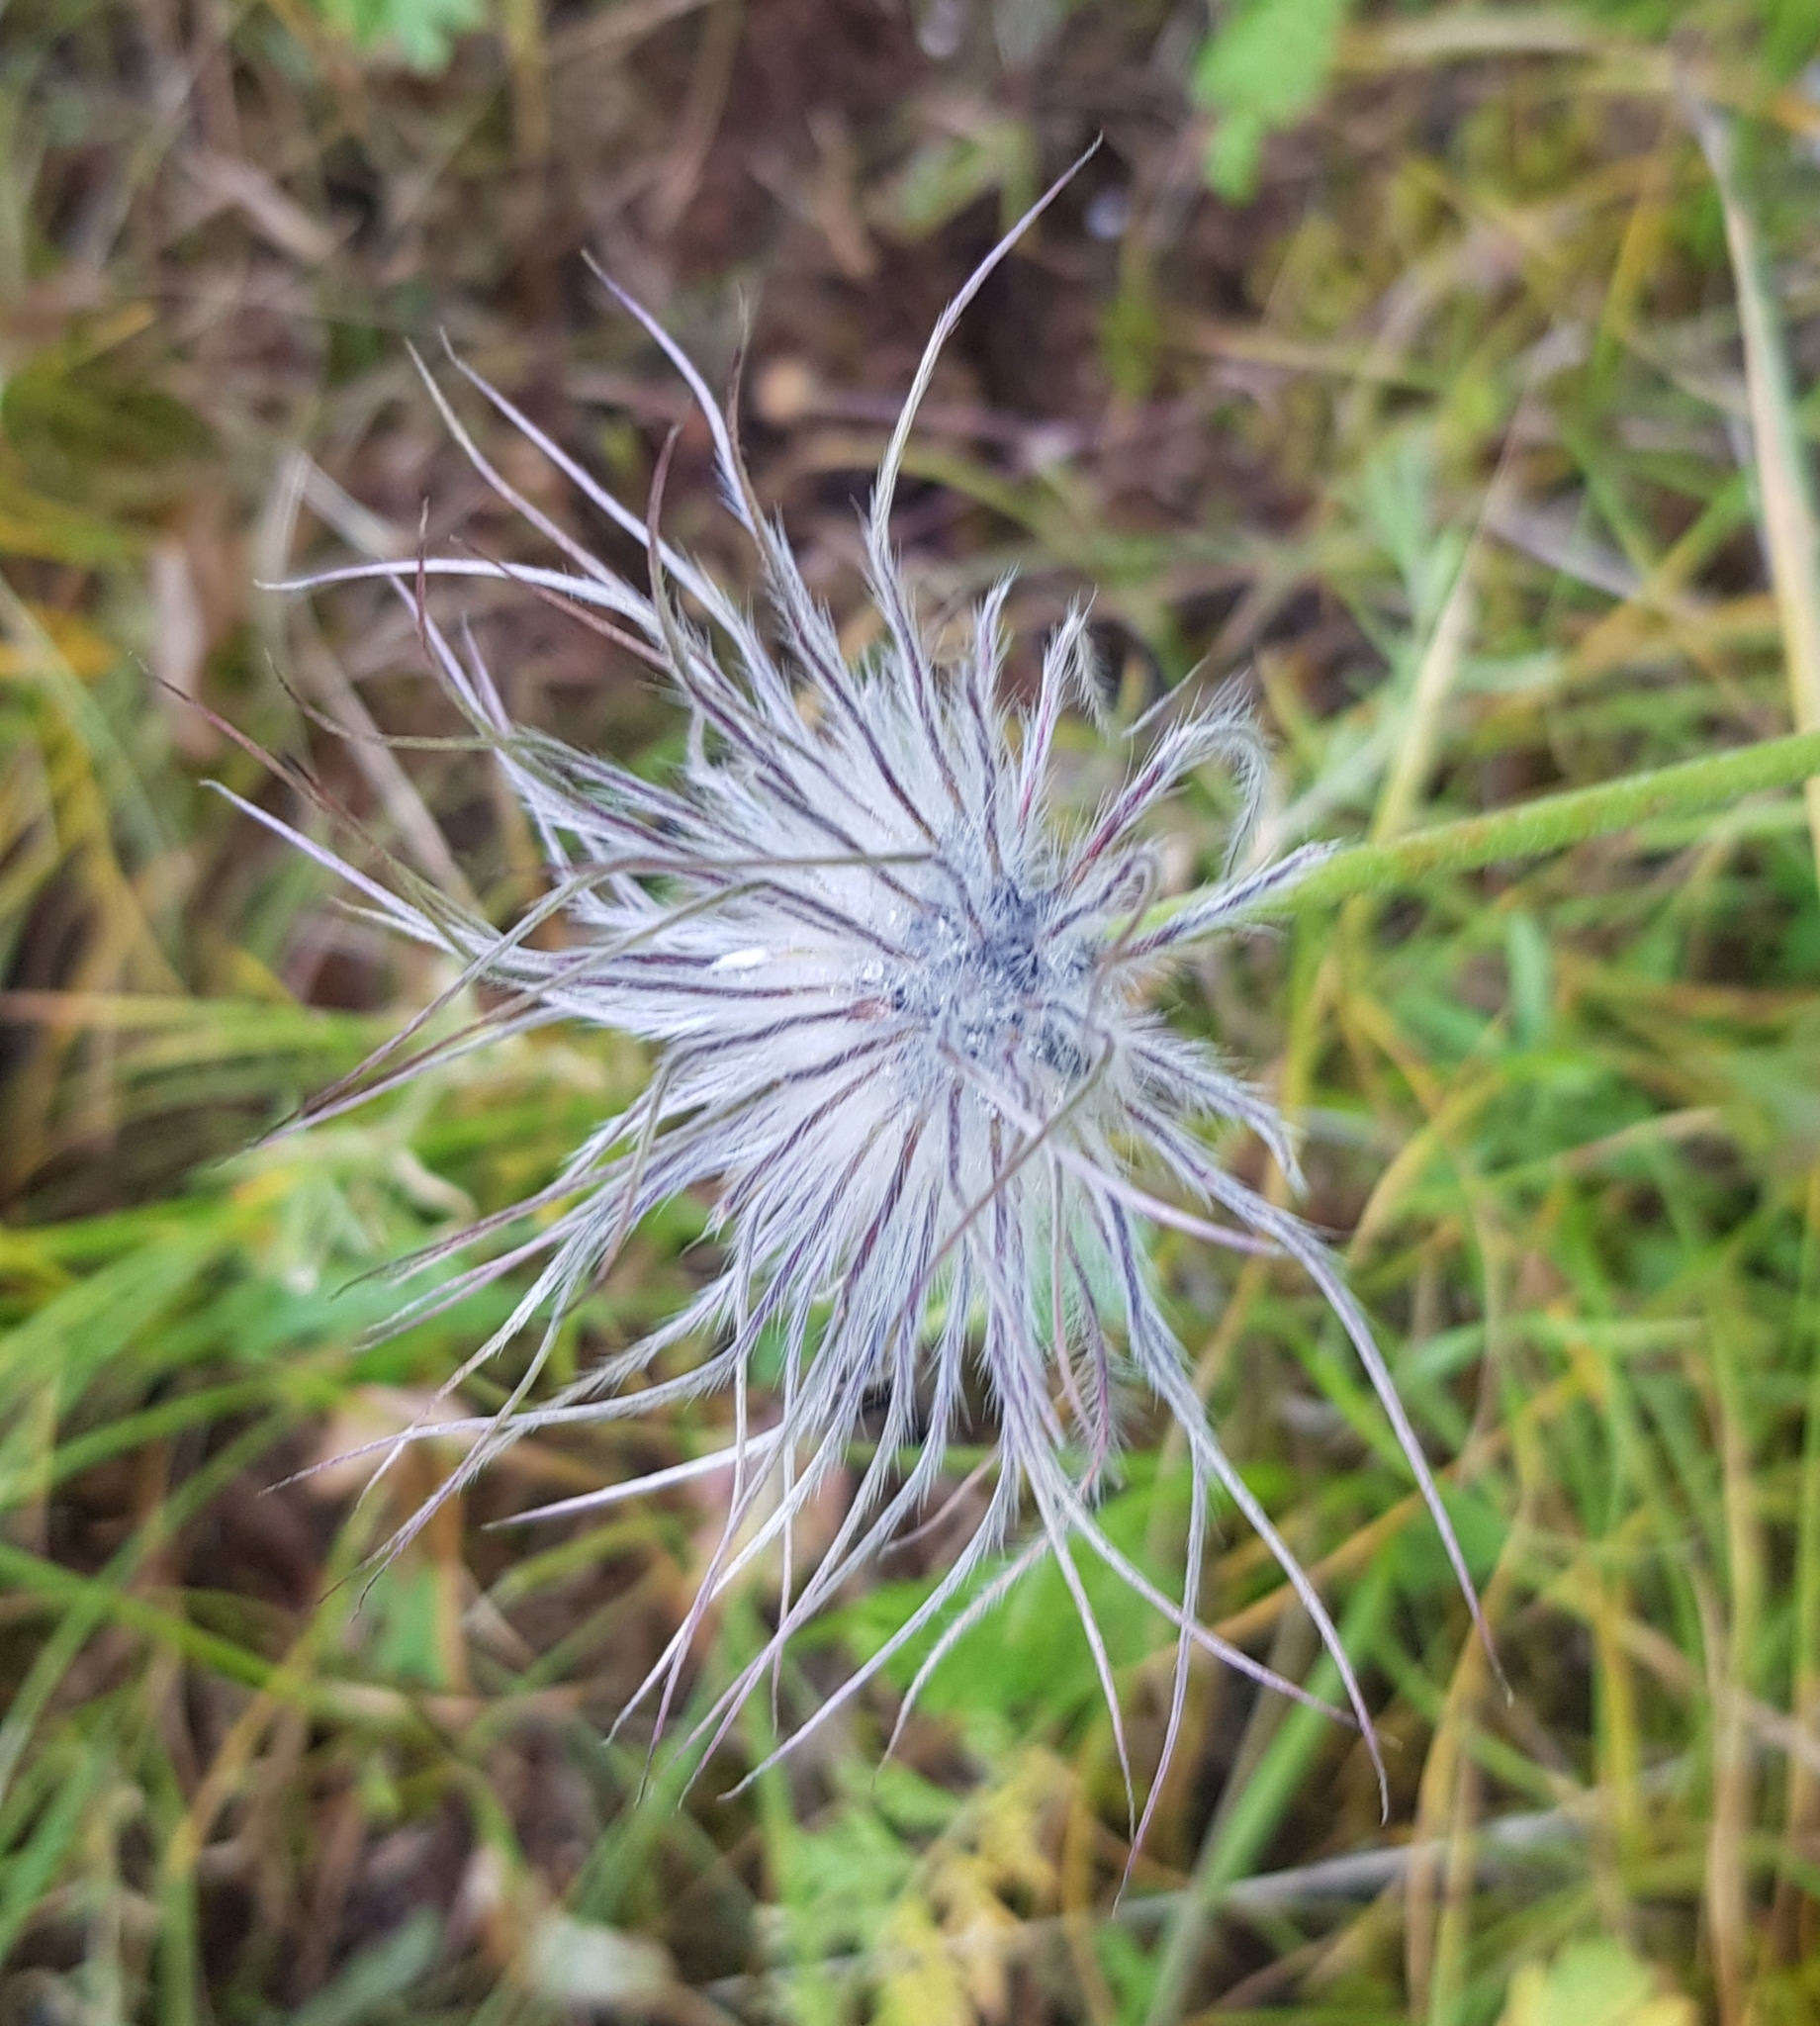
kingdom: Plantae
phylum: Tracheophyta
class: Magnoliopsida
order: Ranunculales
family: Ranunculaceae
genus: Pulsatilla
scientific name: Pulsatilla turczaninovii
